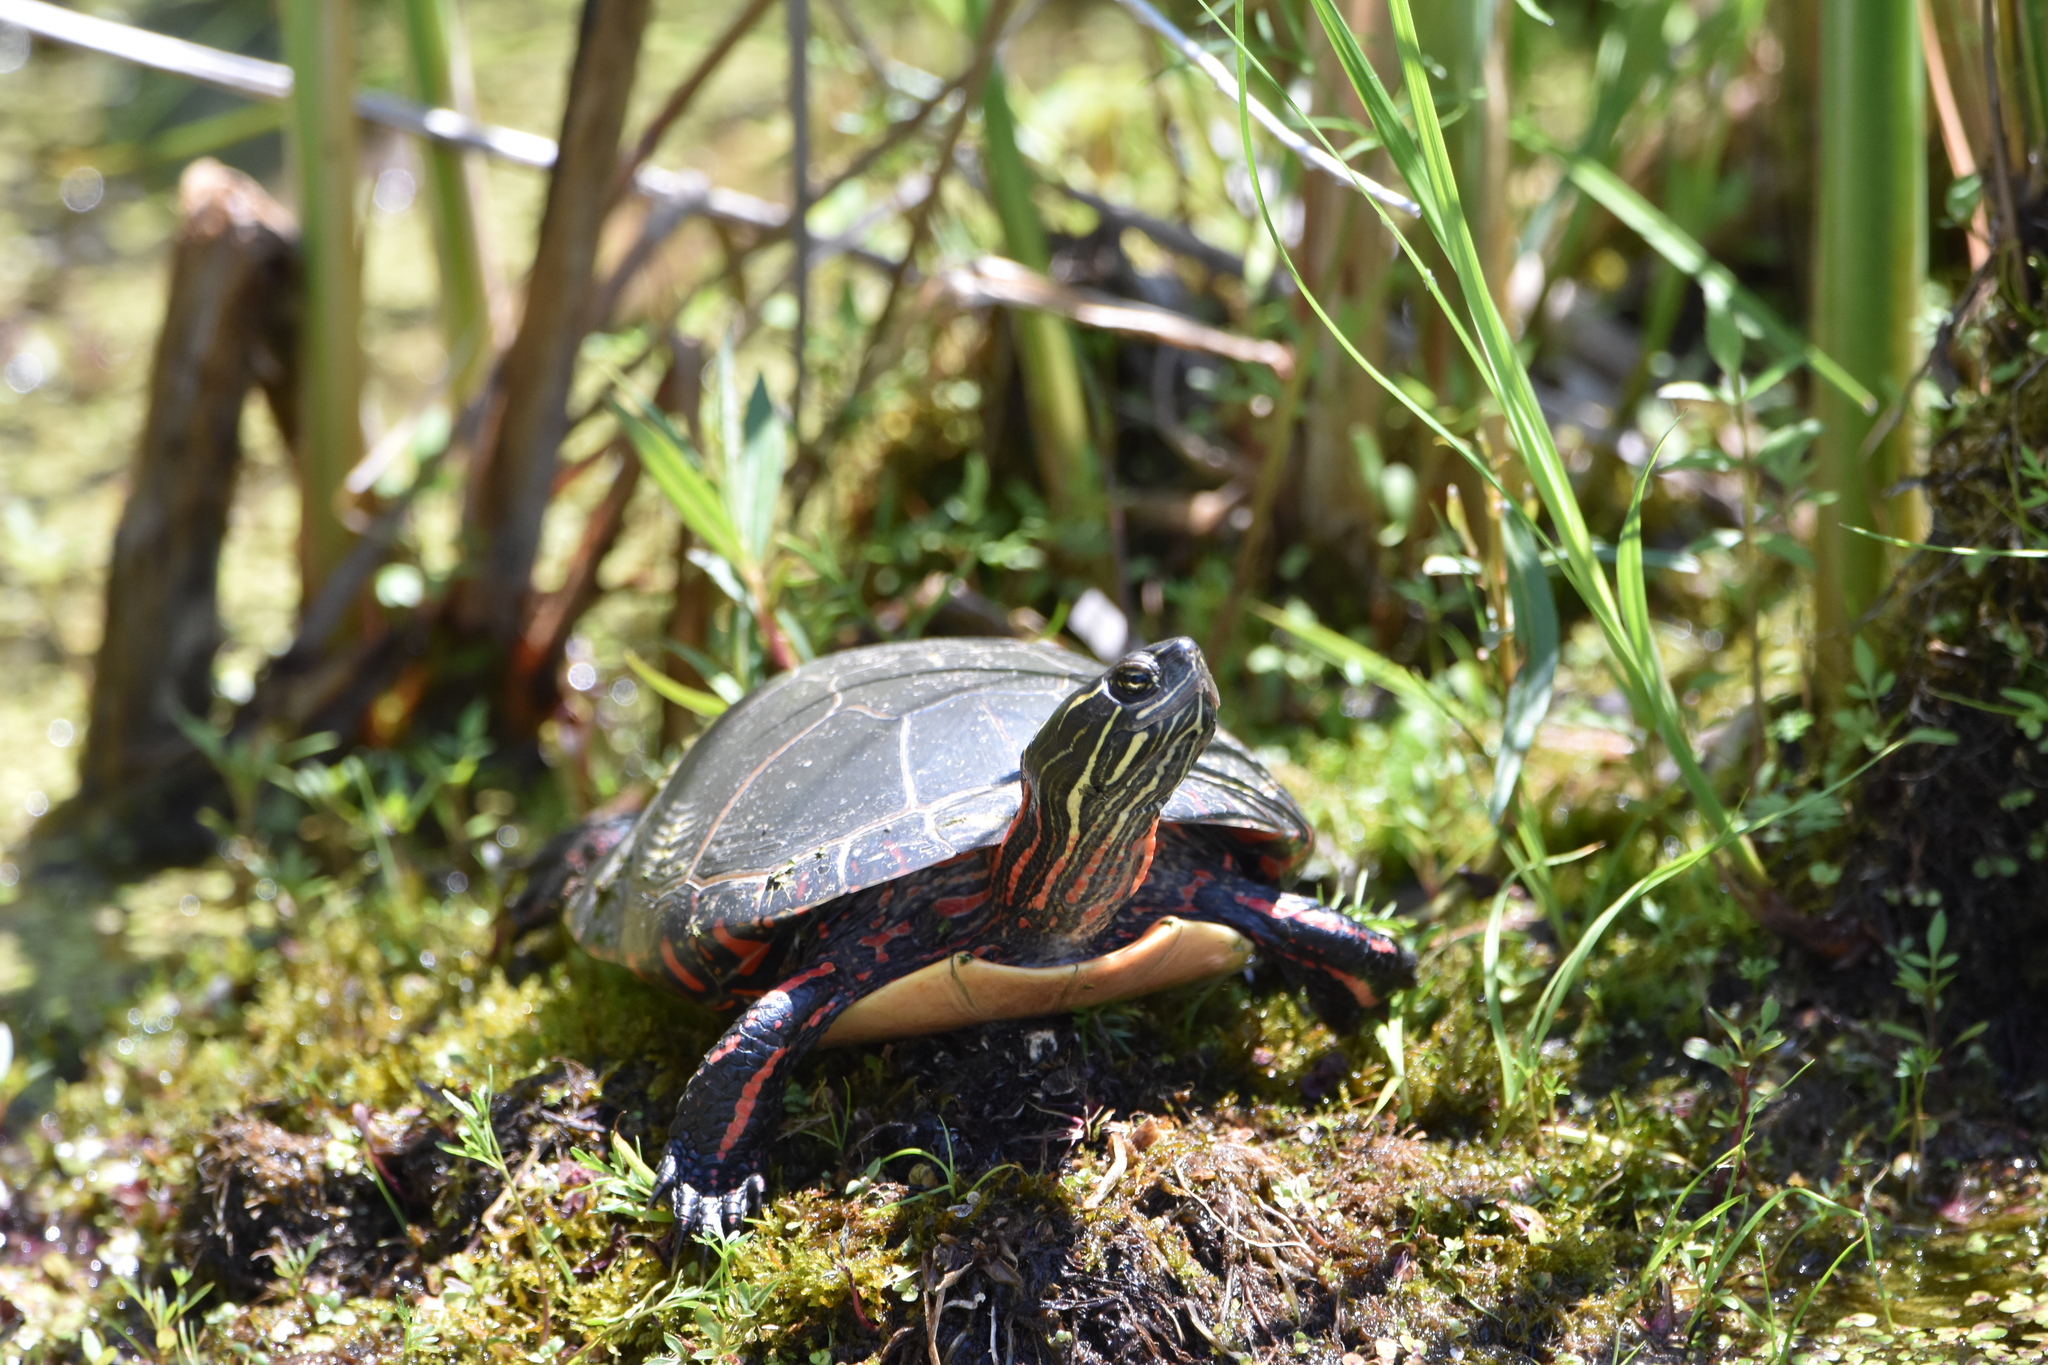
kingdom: Animalia
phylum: Chordata
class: Testudines
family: Emydidae
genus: Chrysemys
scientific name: Chrysemys picta
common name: Painted turtle
